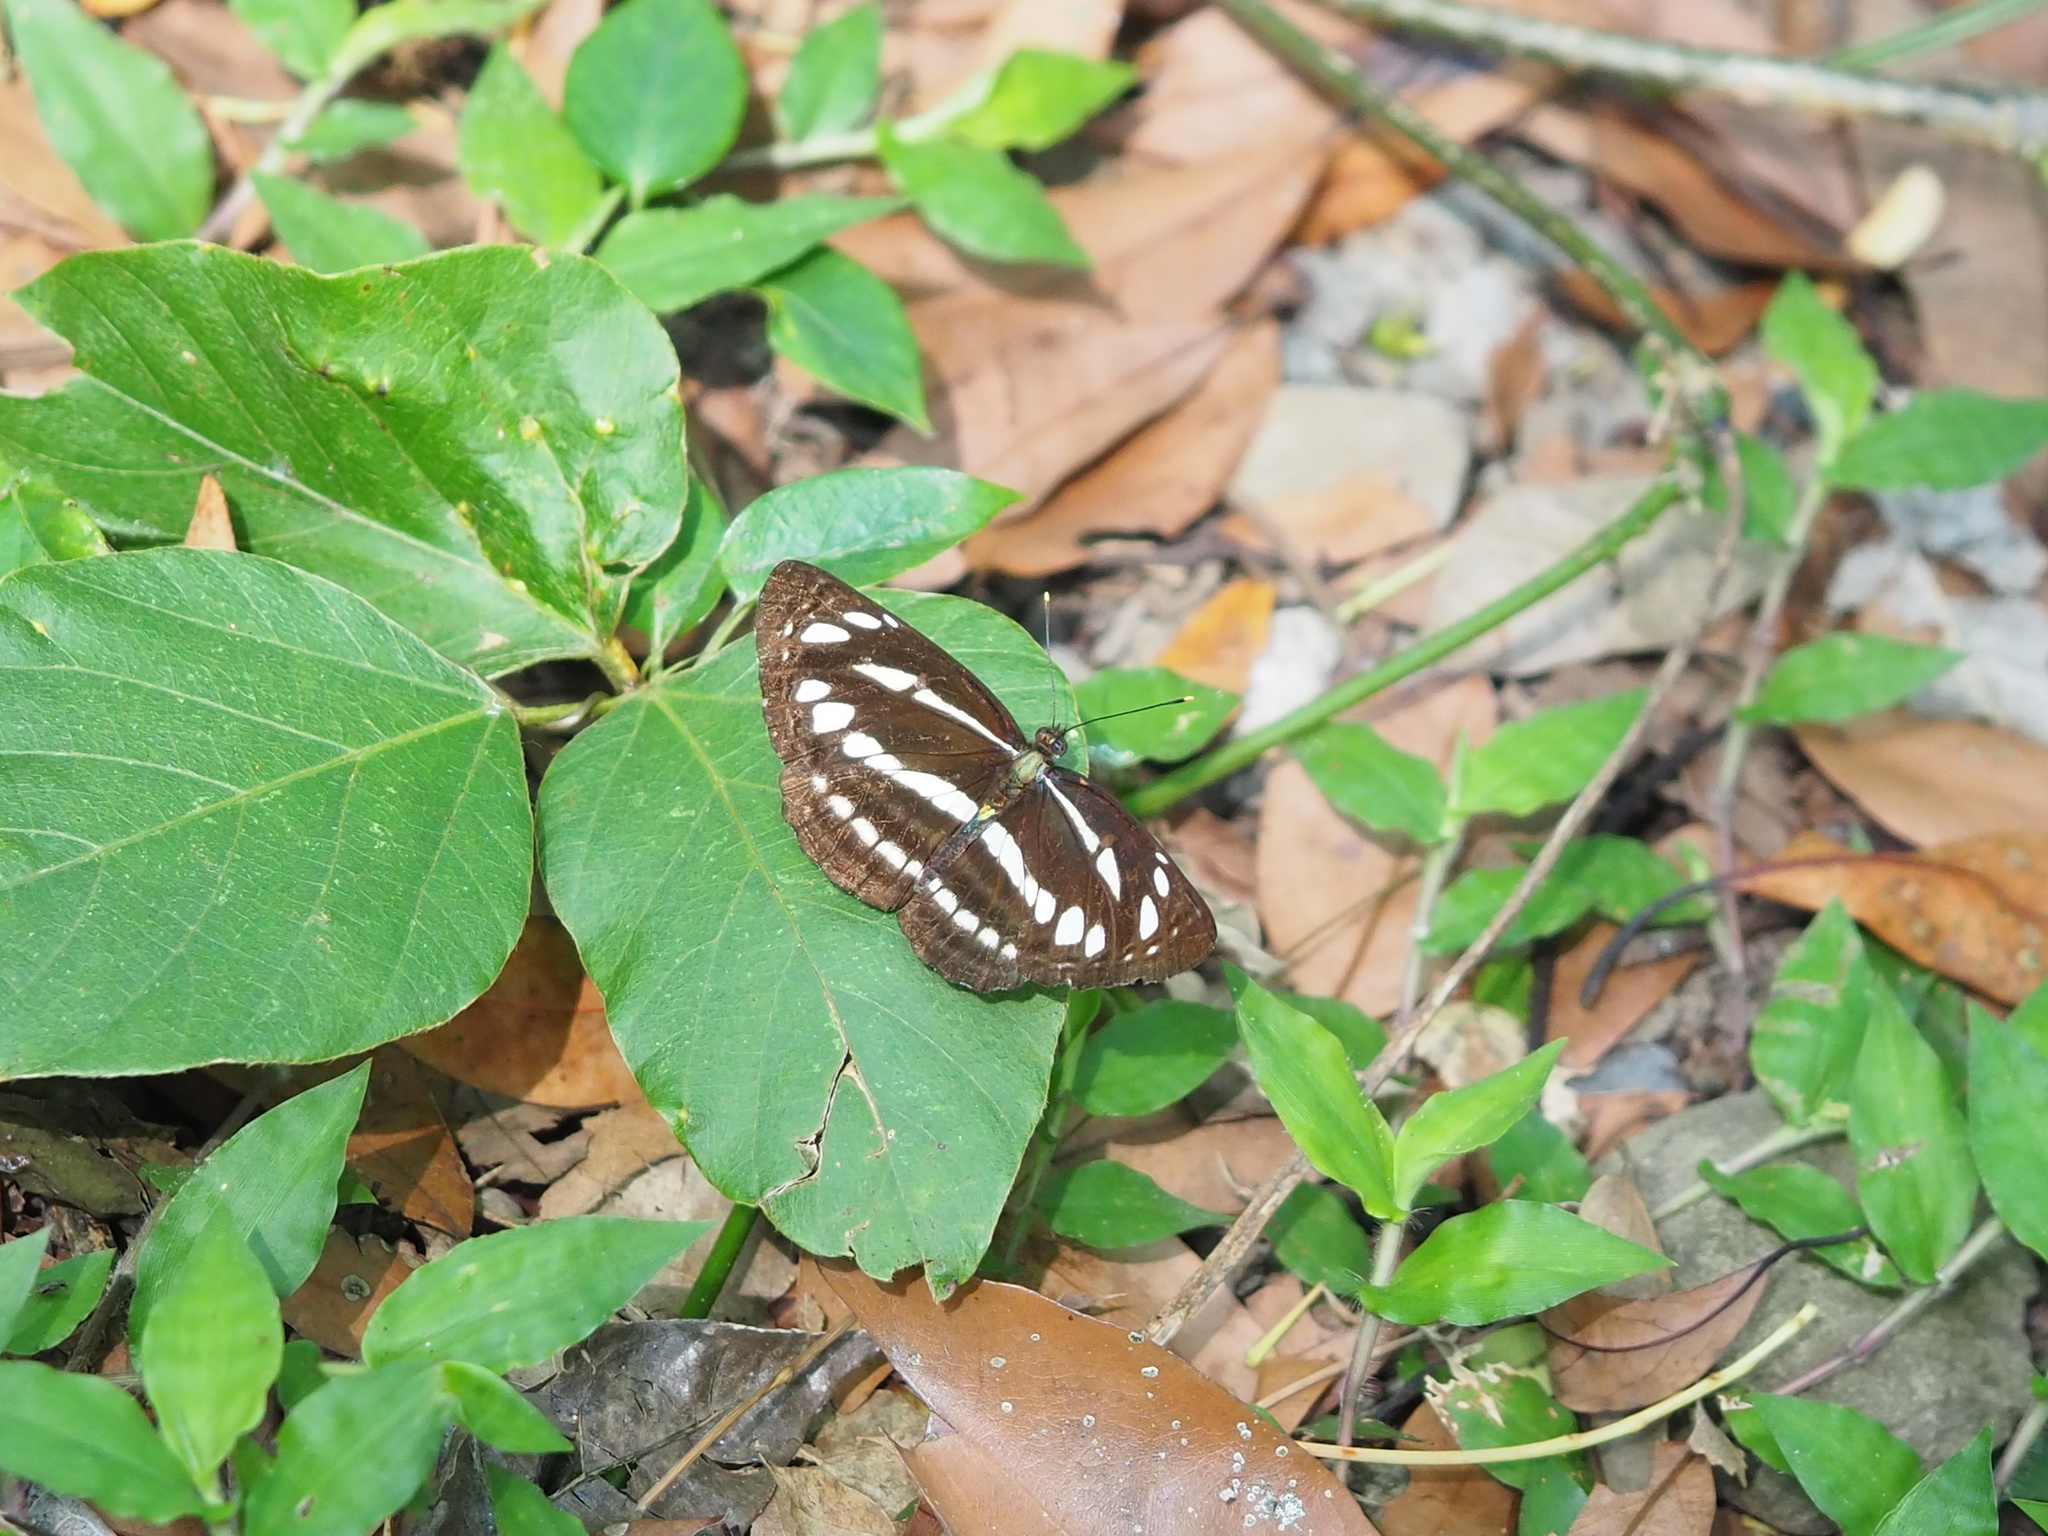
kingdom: Animalia
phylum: Arthropoda
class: Insecta
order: Lepidoptera
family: Nymphalidae
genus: Neptis
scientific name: Neptis hylas
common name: Common sailer
